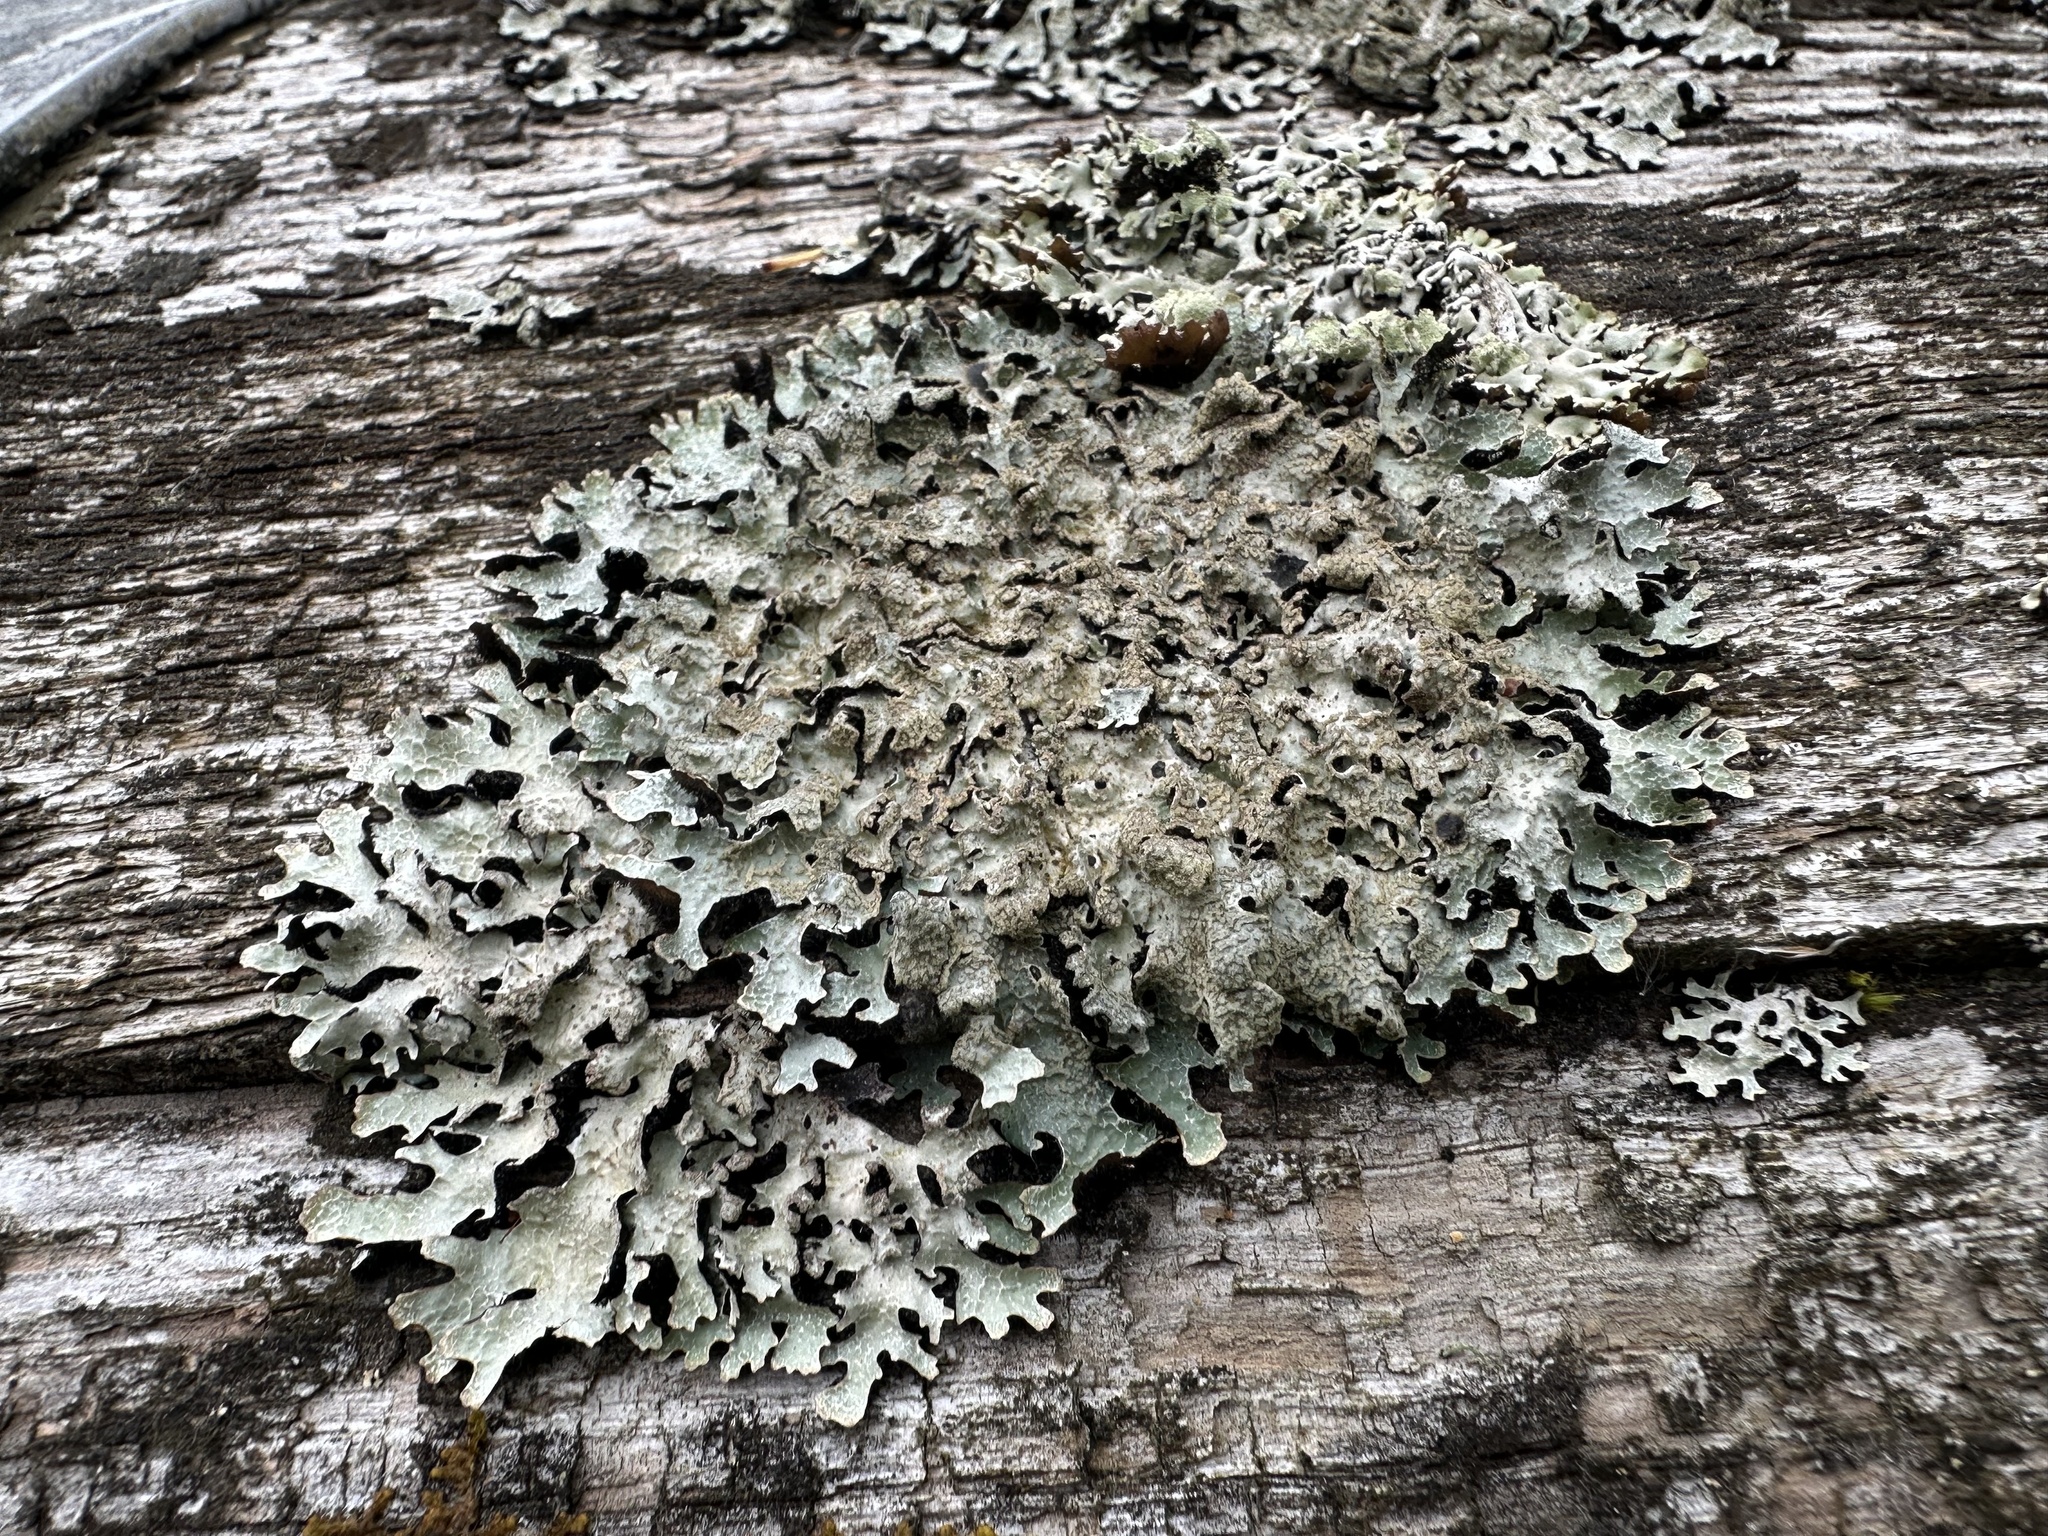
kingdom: Fungi
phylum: Ascomycota
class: Lecanoromycetes
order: Lecanorales
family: Parmeliaceae
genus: Parmelia
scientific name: Parmelia sulcata
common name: Netted shield lichen
